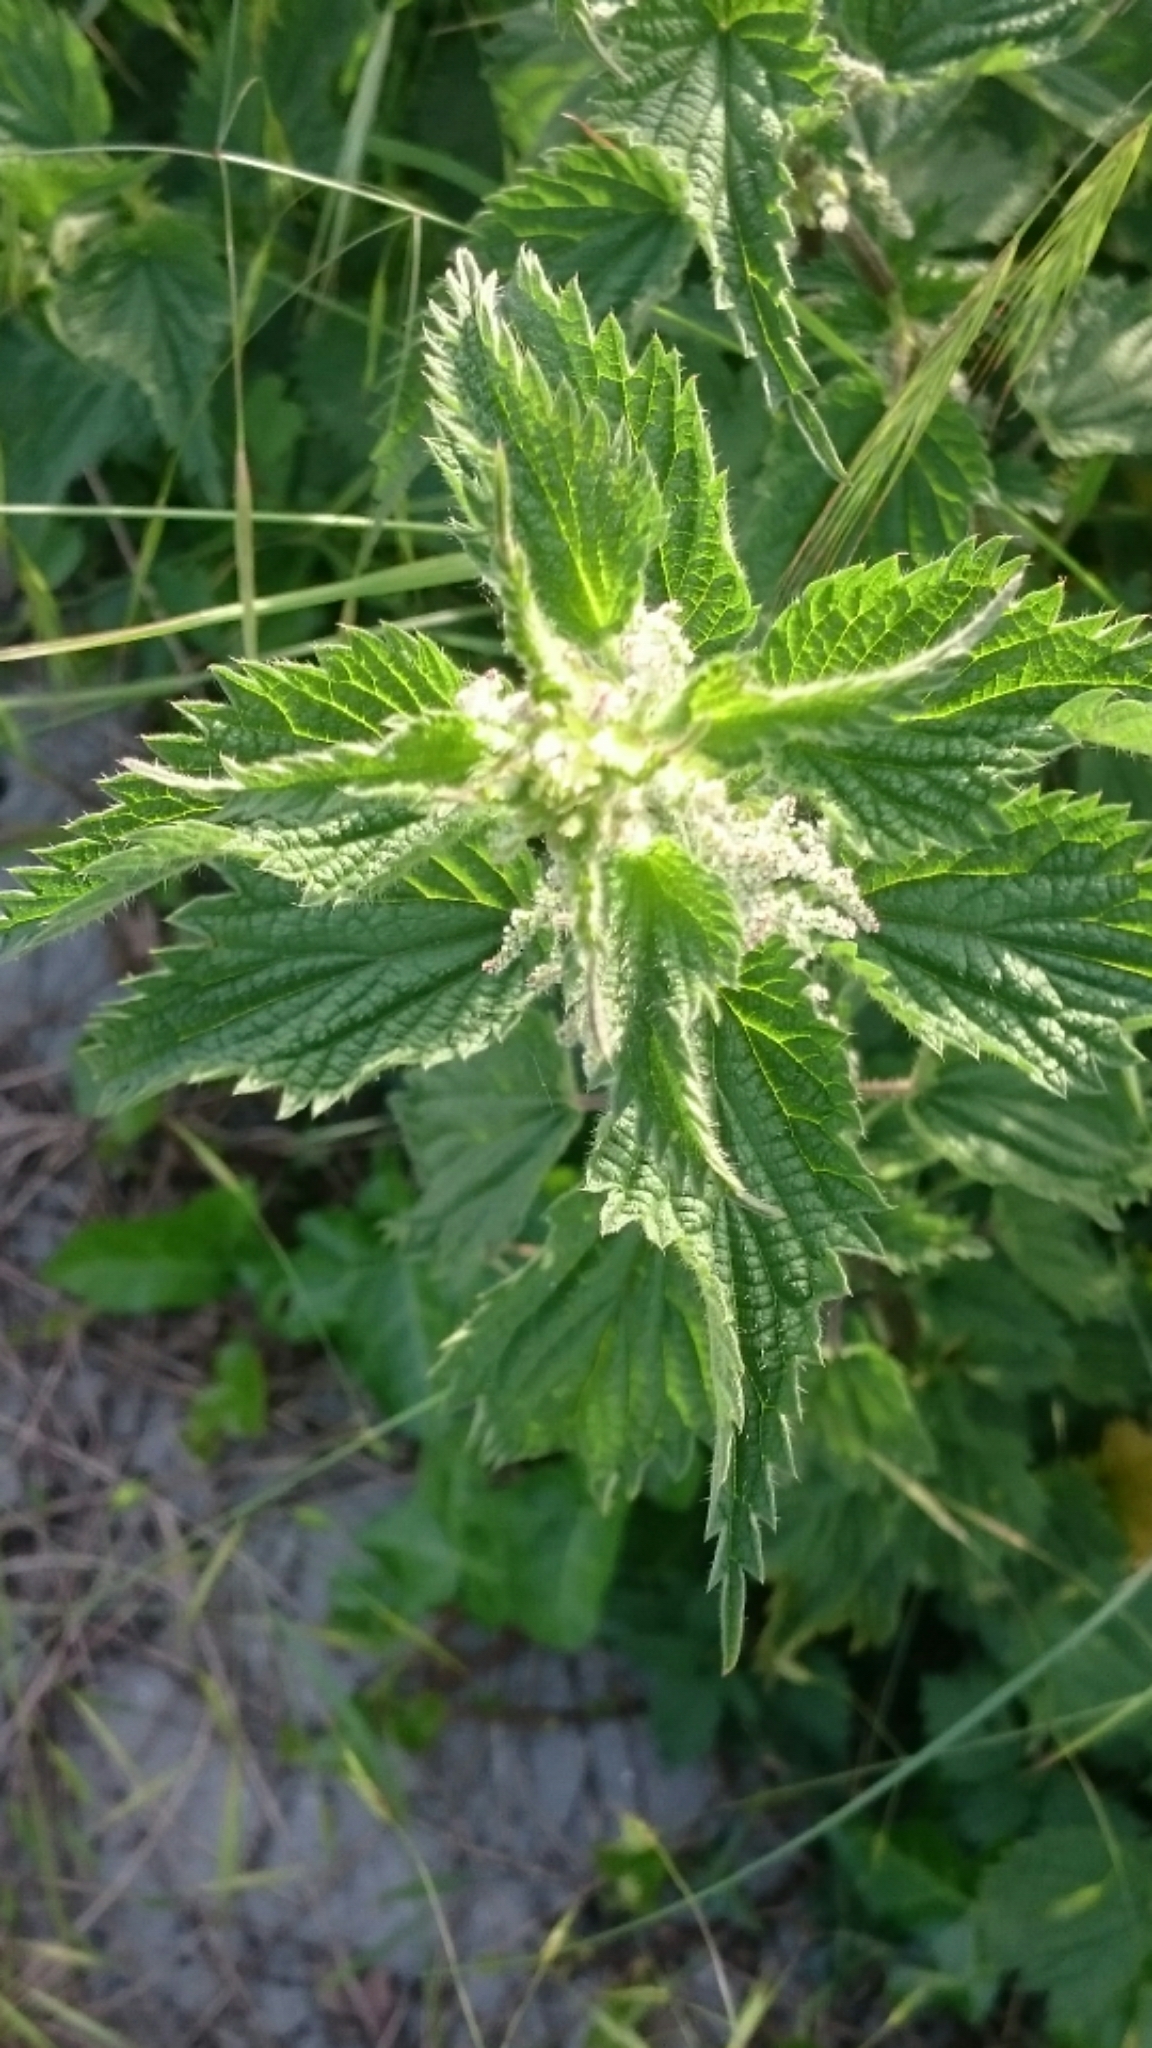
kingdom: Plantae
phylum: Tracheophyta
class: Magnoliopsida
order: Rosales
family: Urticaceae
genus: Urtica
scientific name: Urtica dioica
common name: Common nettle
